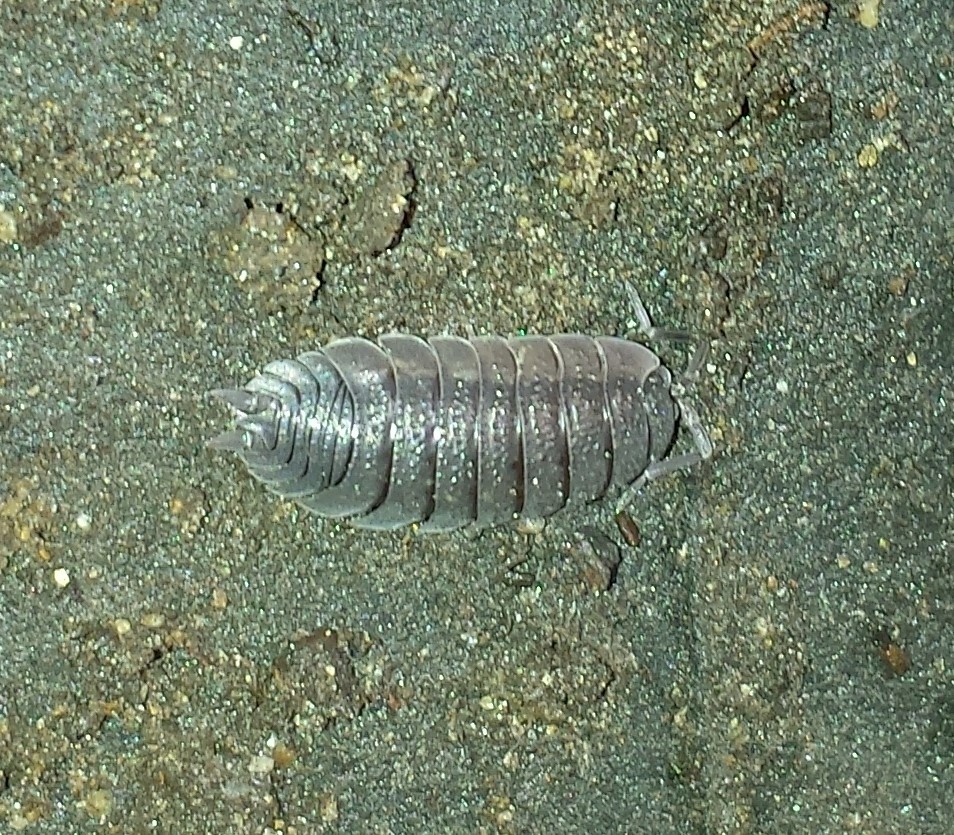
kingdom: Animalia
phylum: Arthropoda
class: Malacostraca
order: Isopoda
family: Porcellionidae
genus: Porcellio
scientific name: Porcellio scaber
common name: Common rough woodlouse
